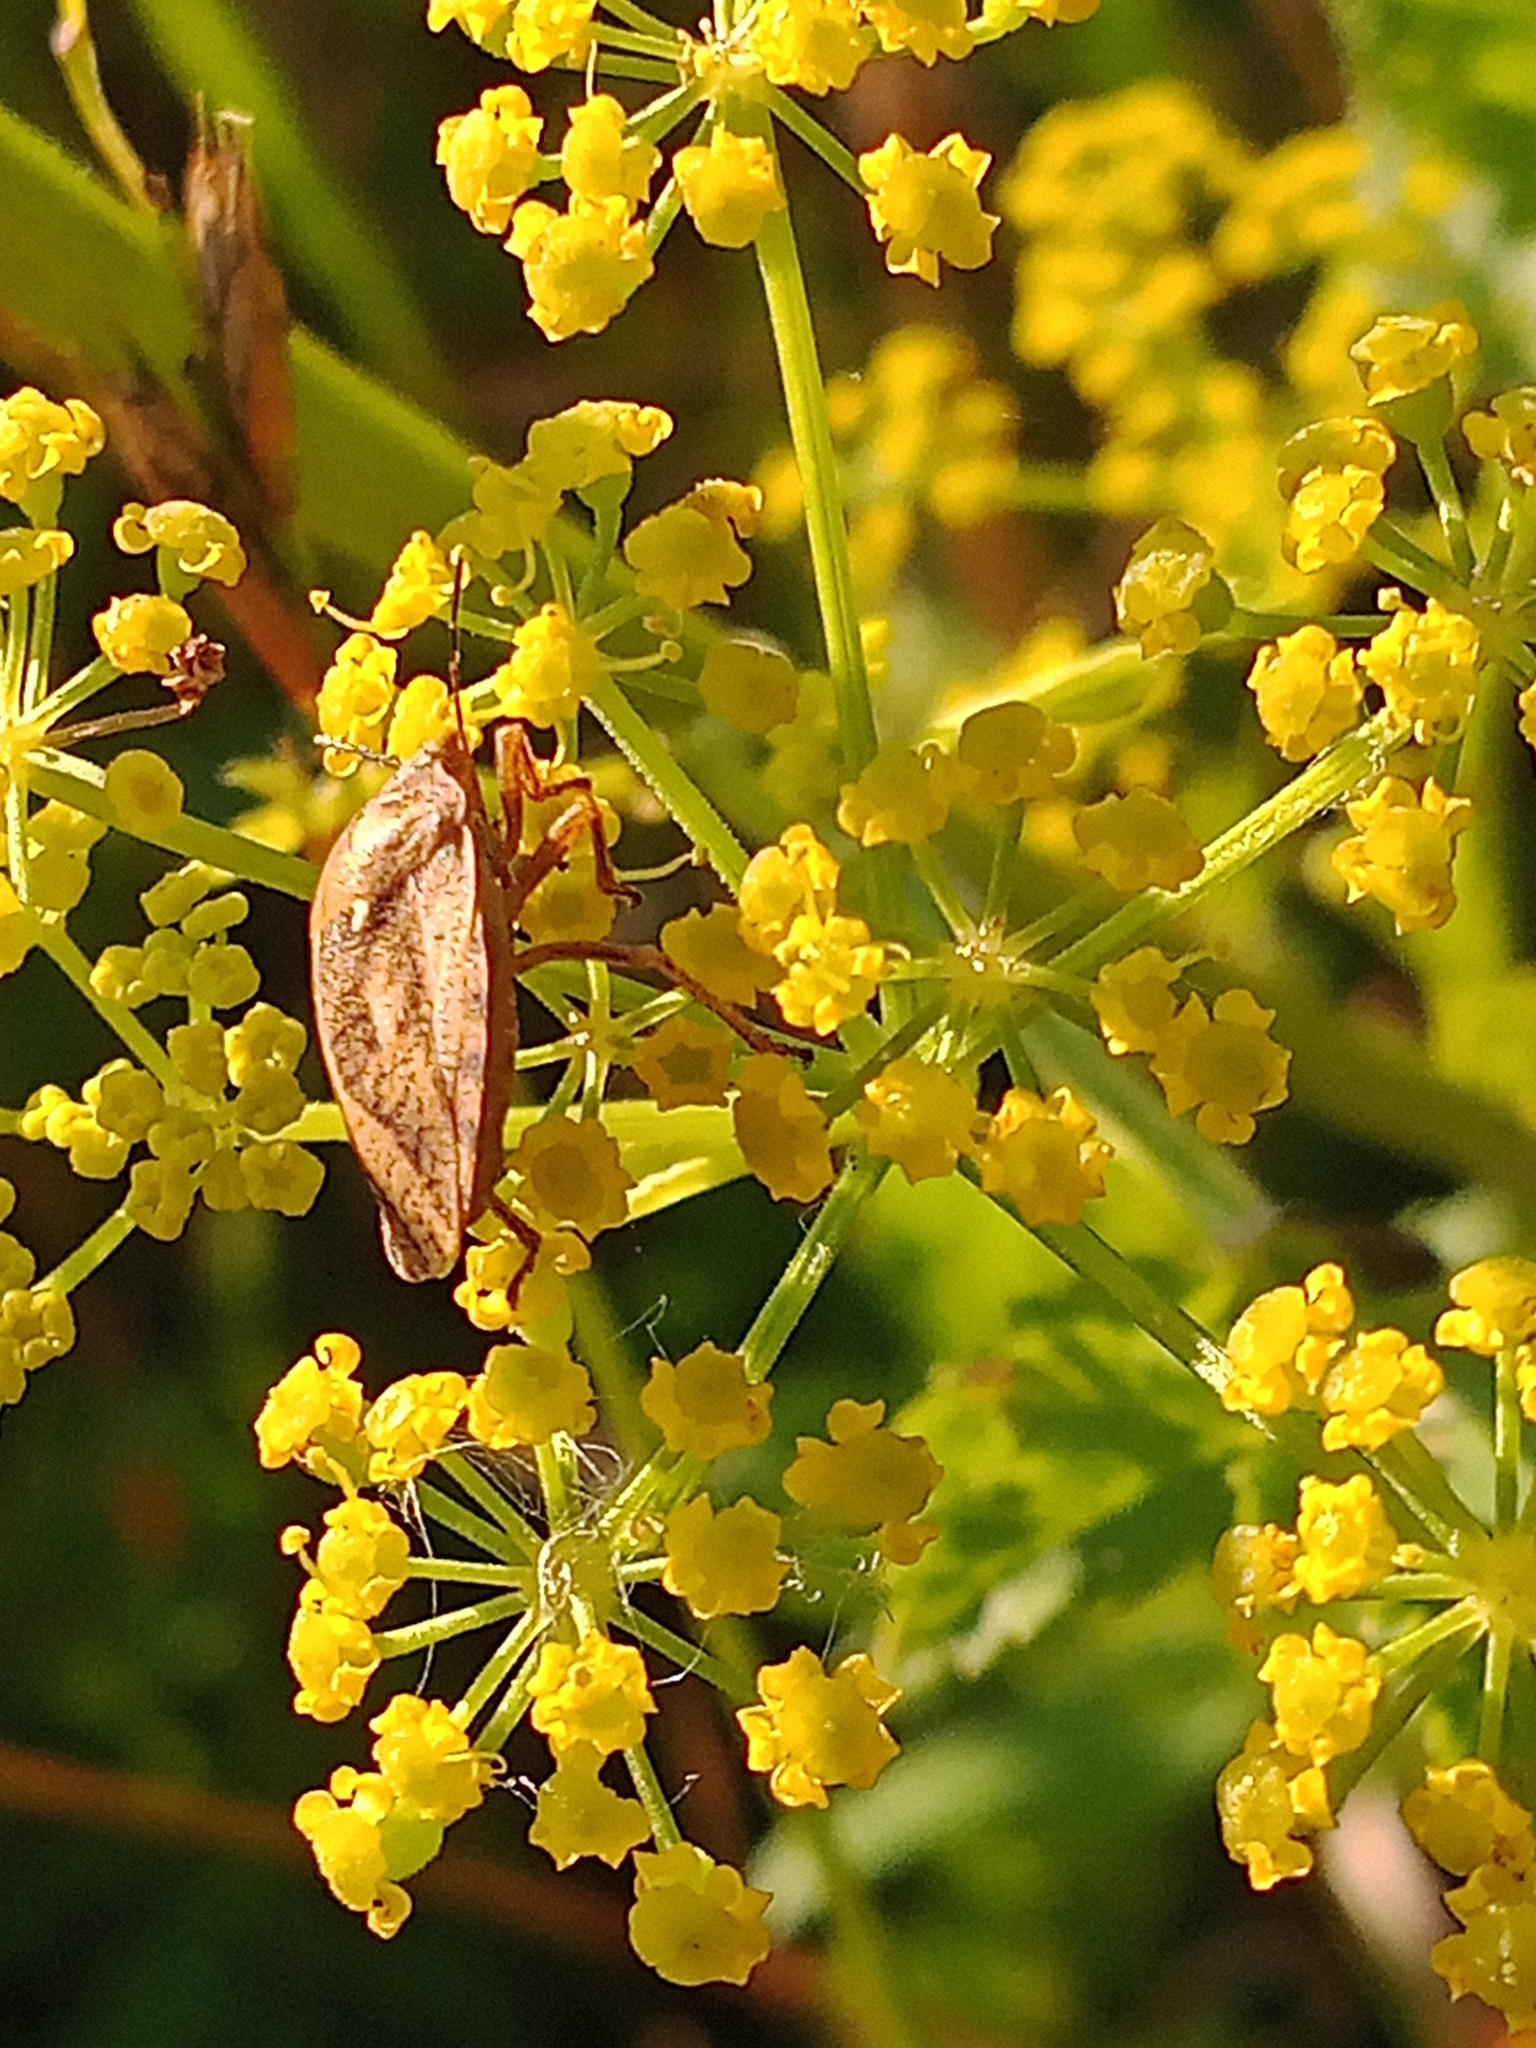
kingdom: Animalia
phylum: Arthropoda
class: Insecta
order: Hemiptera
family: Scutelleridae
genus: Eurygaster
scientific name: Eurygaster testudinaria
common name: Tortoise bug
